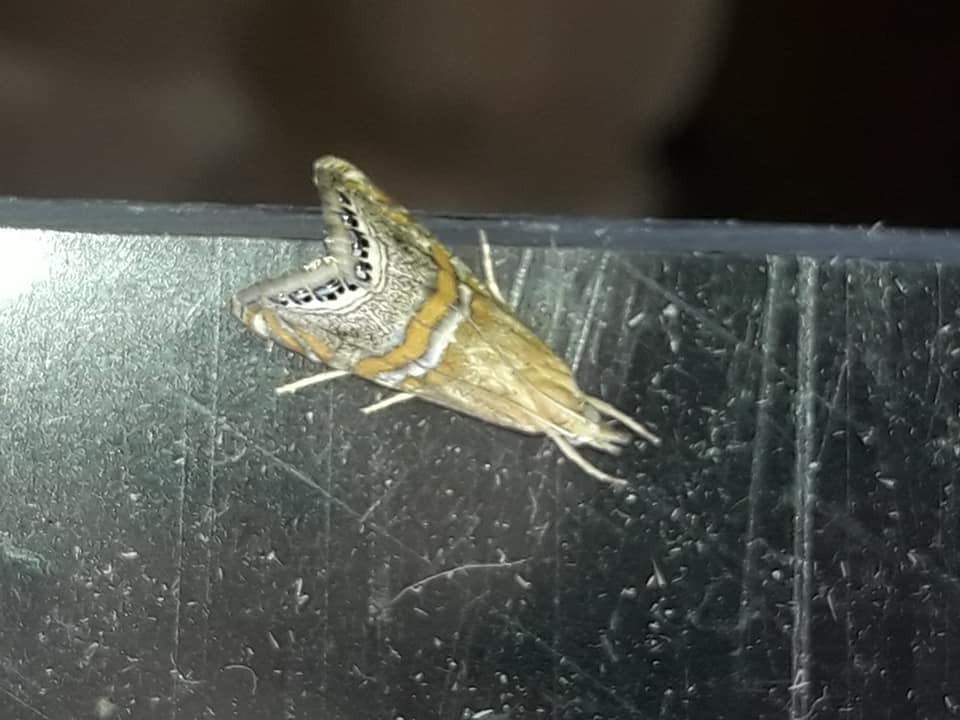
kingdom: Animalia
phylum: Arthropoda
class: Insecta
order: Lepidoptera
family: Crambidae
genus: Euchromius
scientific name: Euchromius bella
